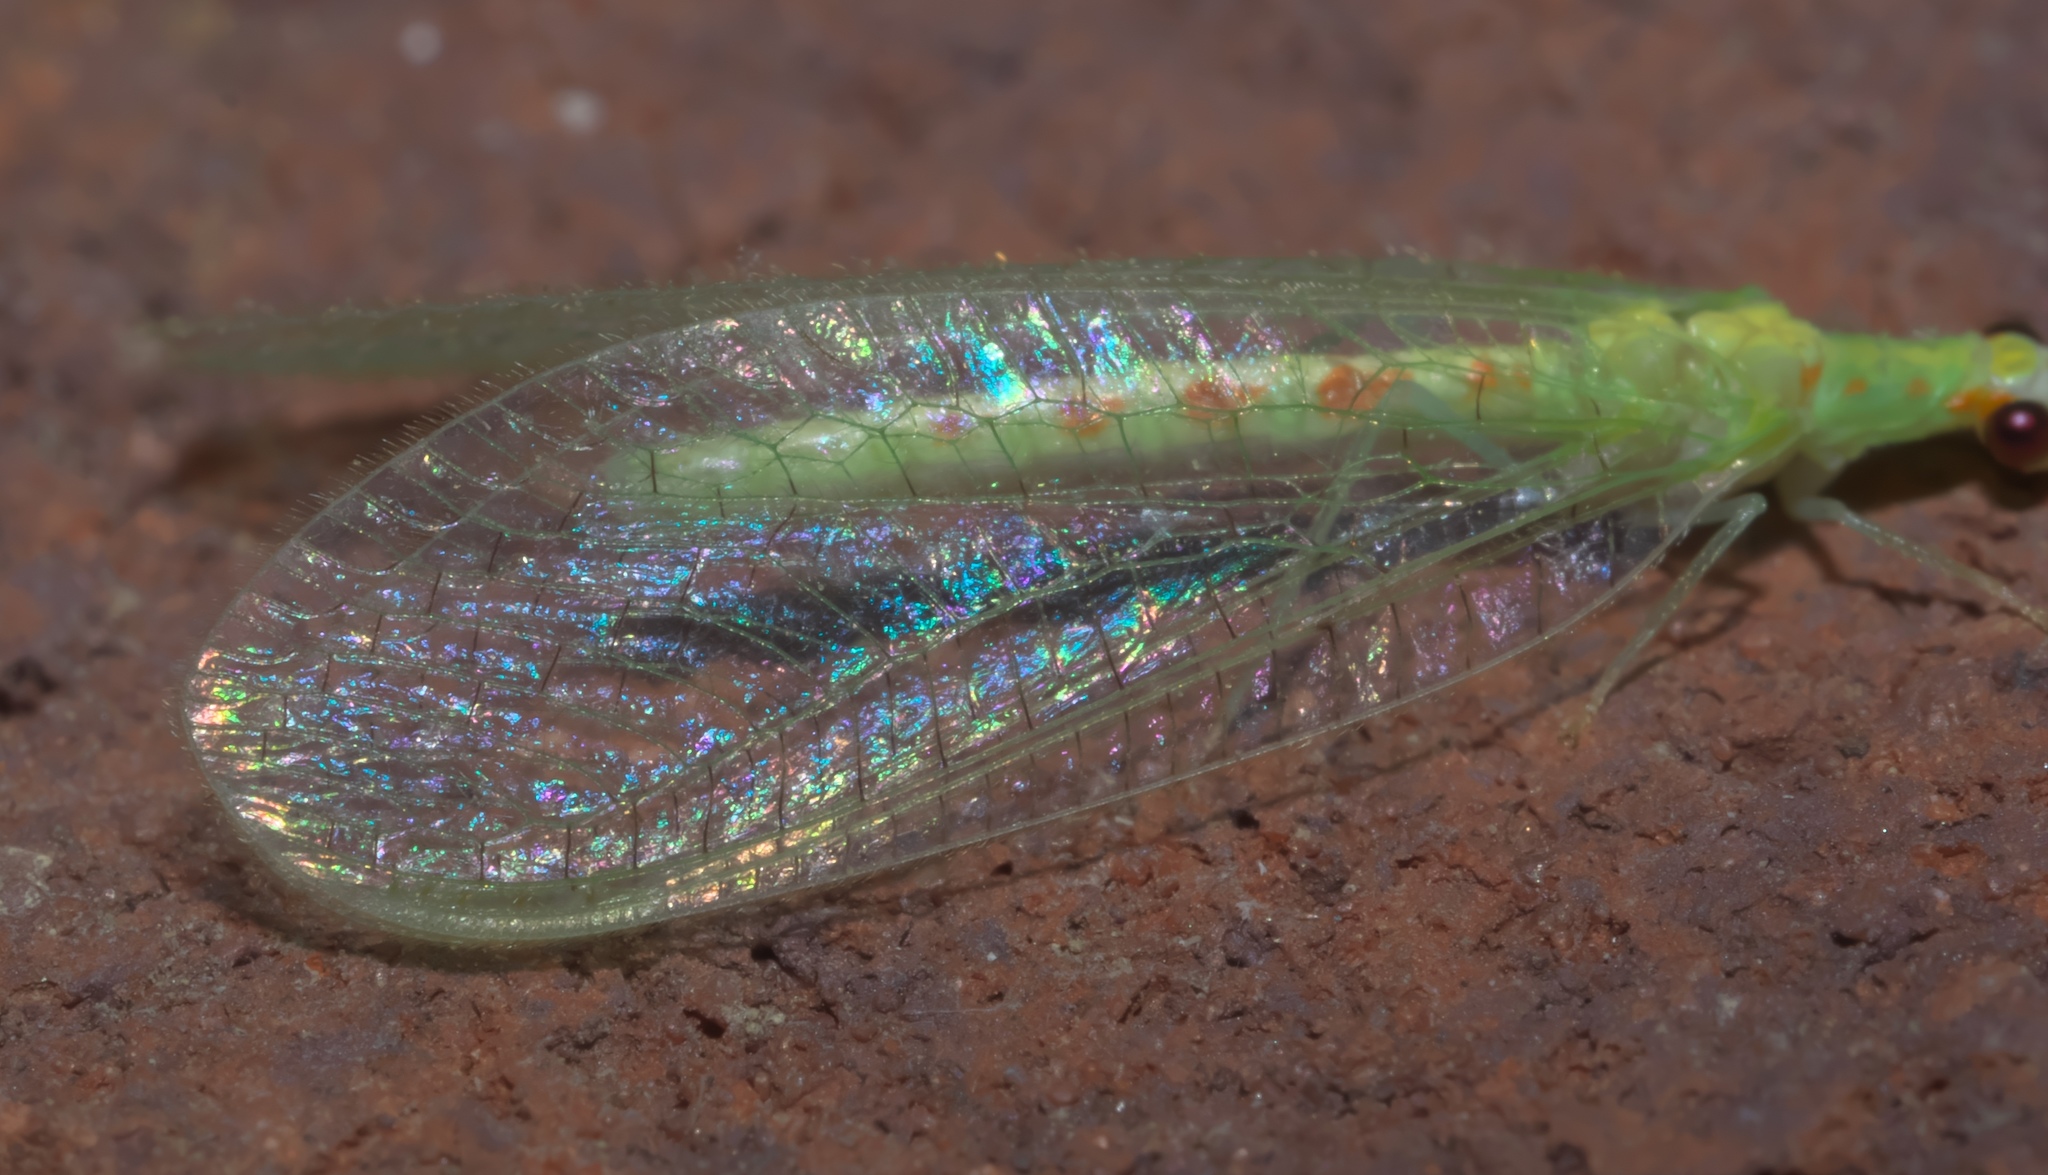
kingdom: Animalia
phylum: Arthropoda
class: Insecta
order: Neuroptera
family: Chrysopidae
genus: Chrysopa
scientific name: Chrysopa quadripunctata
